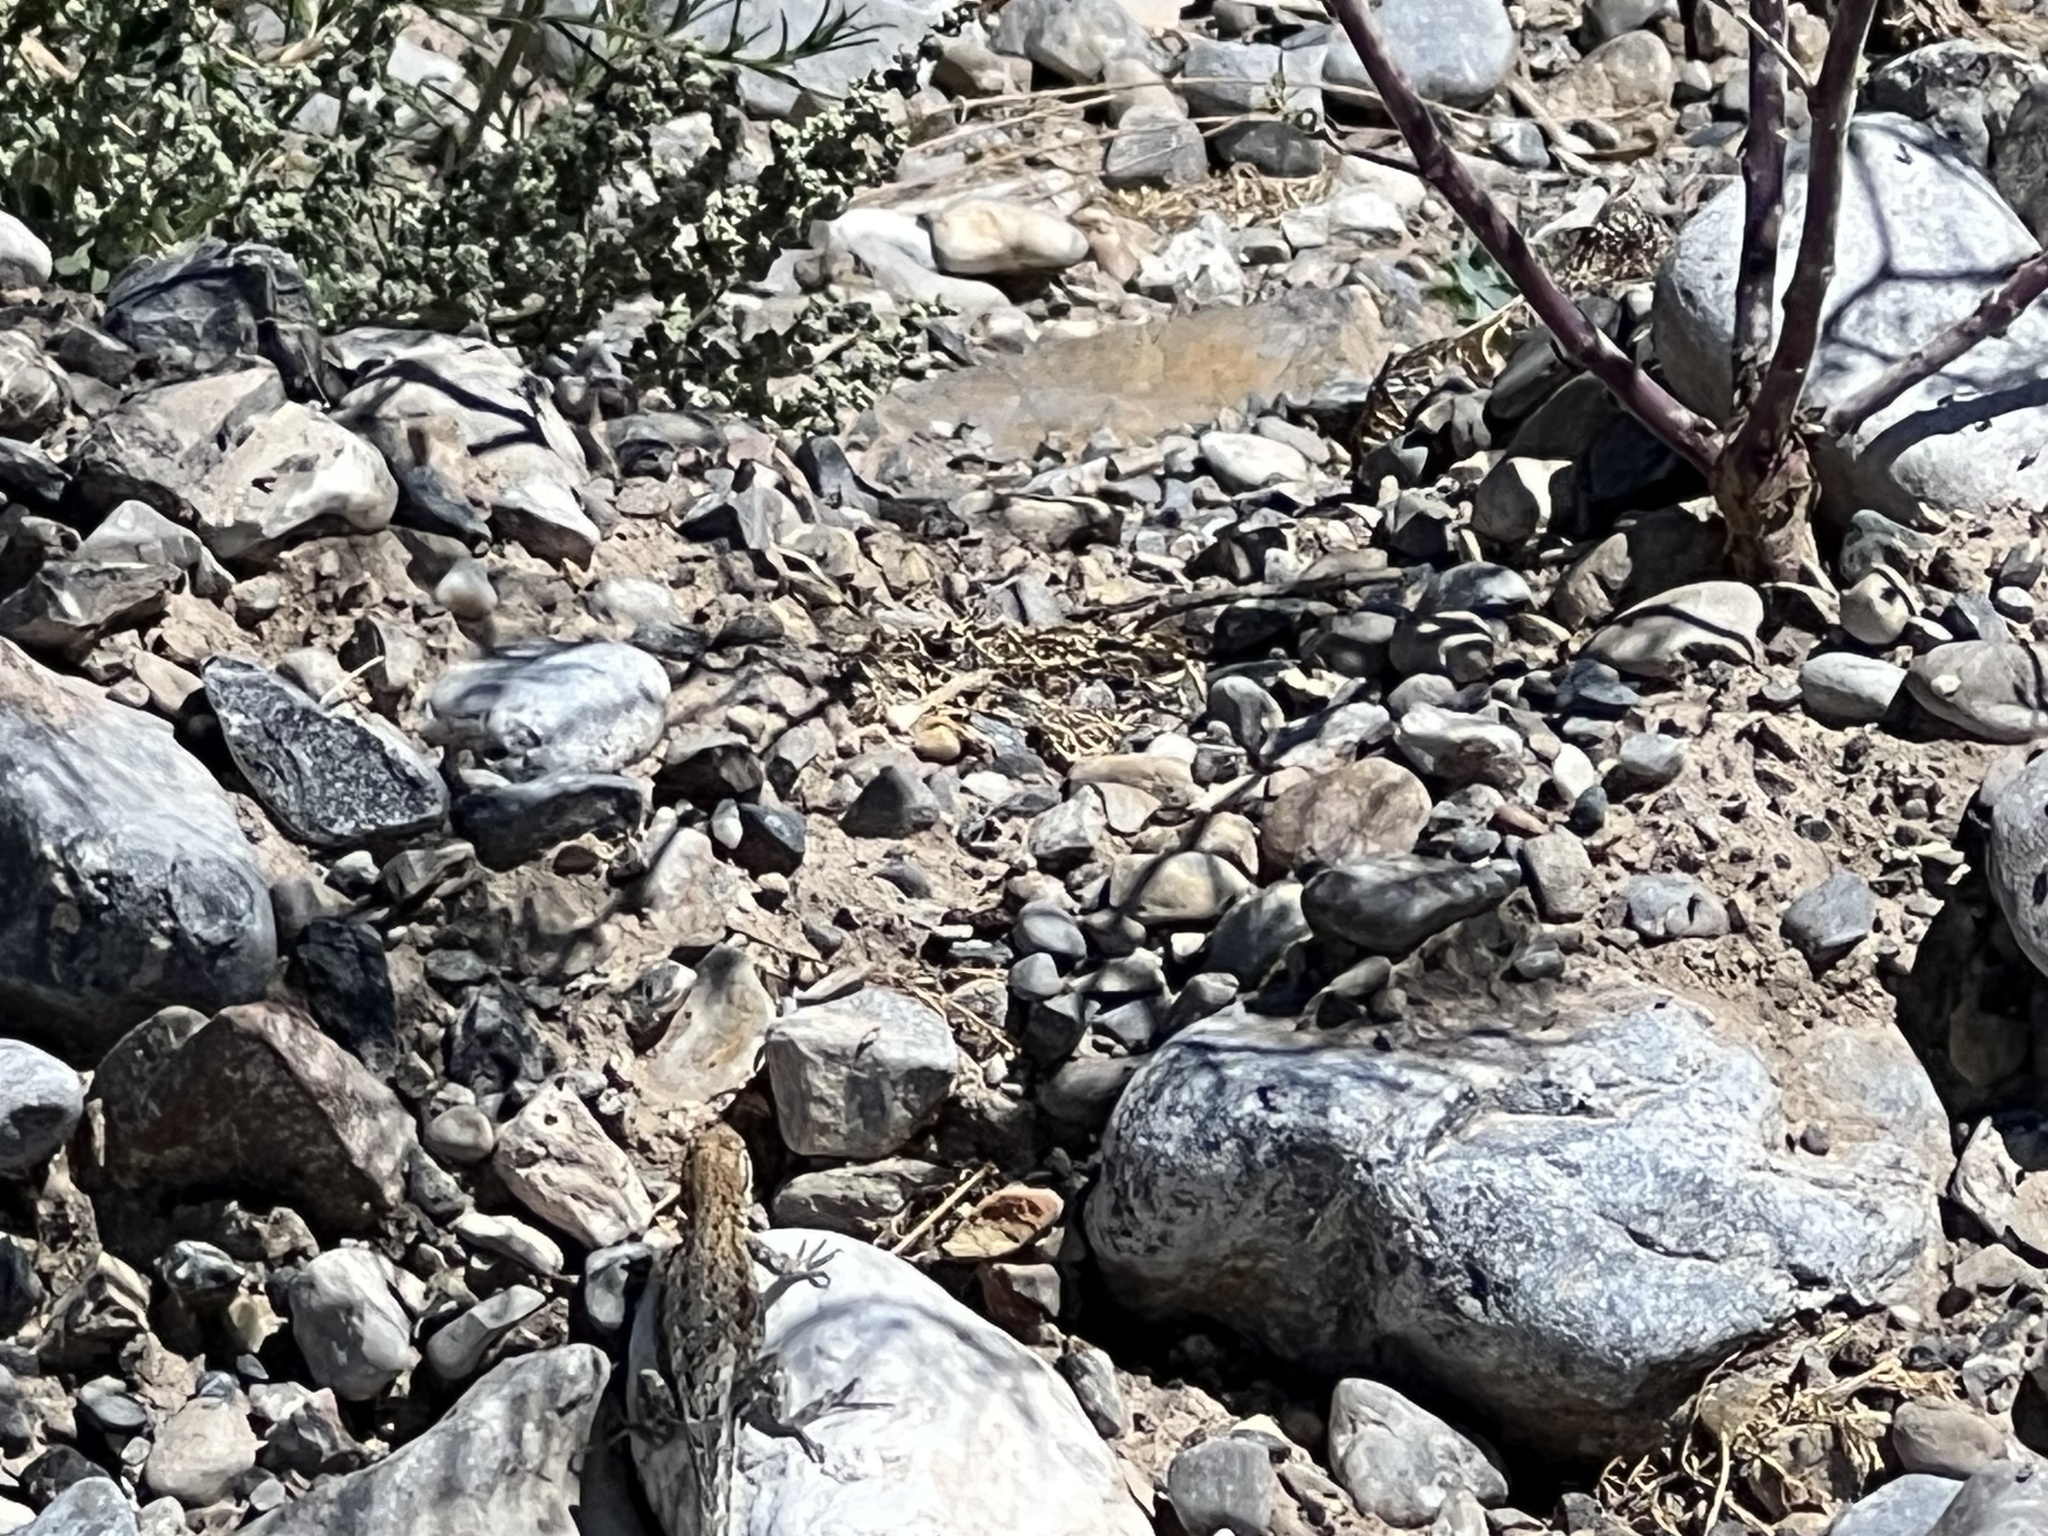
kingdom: Animalia
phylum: Chordata
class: Squamata
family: Phrynosomatidae
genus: Uta
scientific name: Uta stansburiana
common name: Side-blotched lizard
